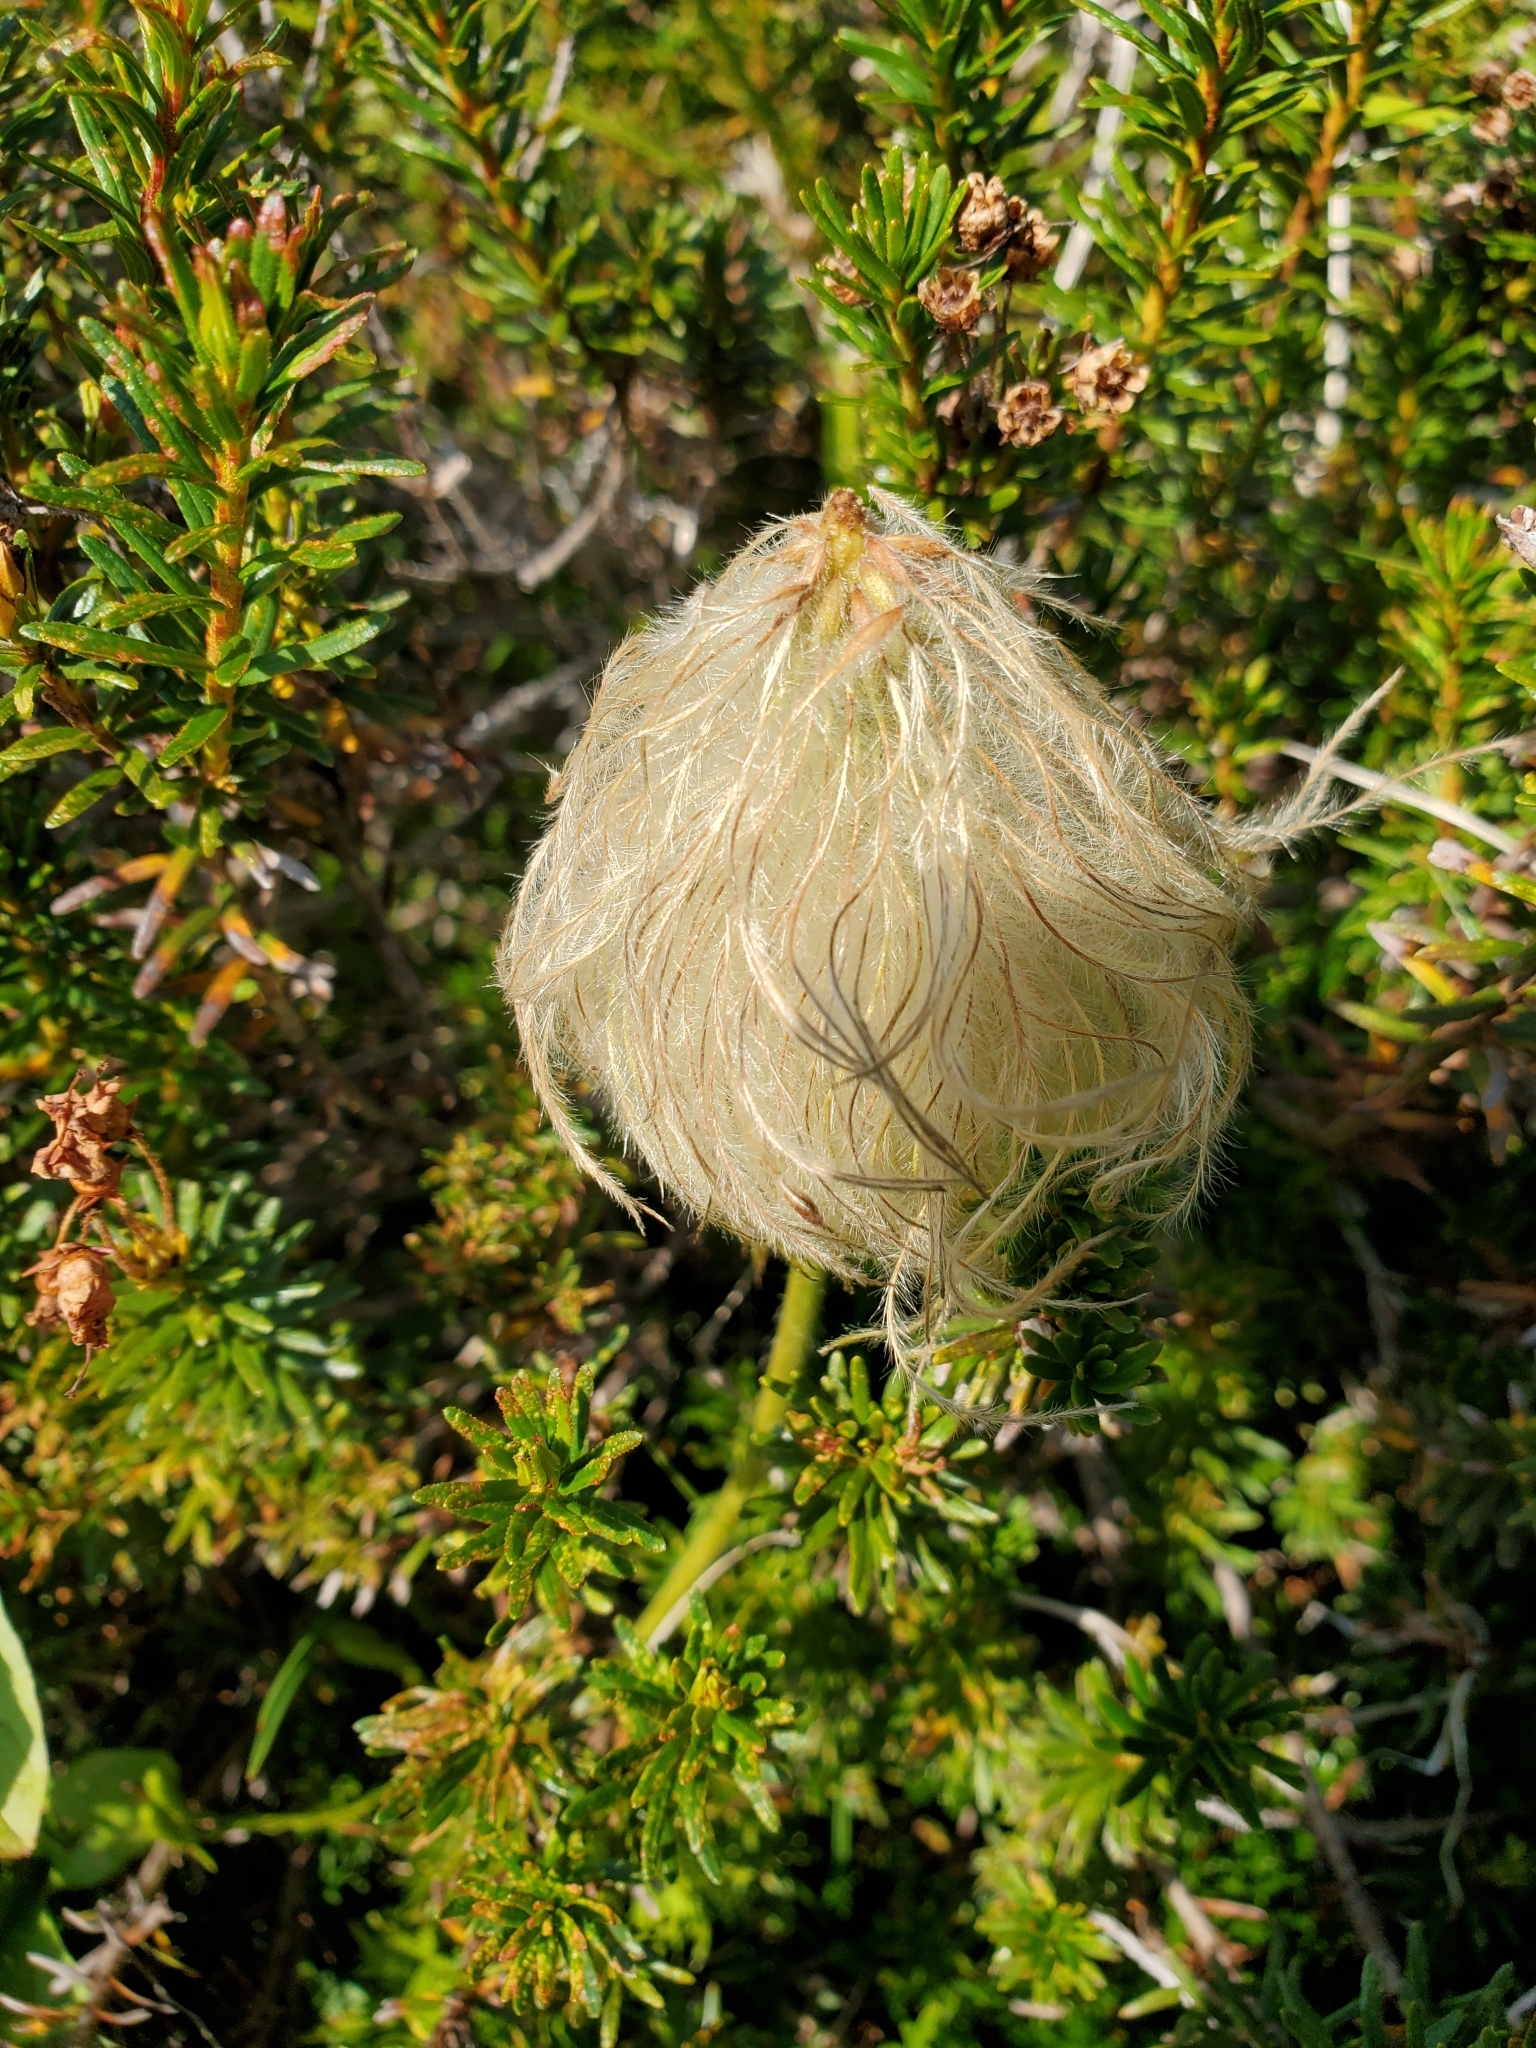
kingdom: Plantae
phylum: Tracheophyta
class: Magnoliopsida
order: Ranunculales
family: Ranunculaceae
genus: Pulsatilla
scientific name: Pulsatilla occidentalis
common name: Mountain pasqueflower
